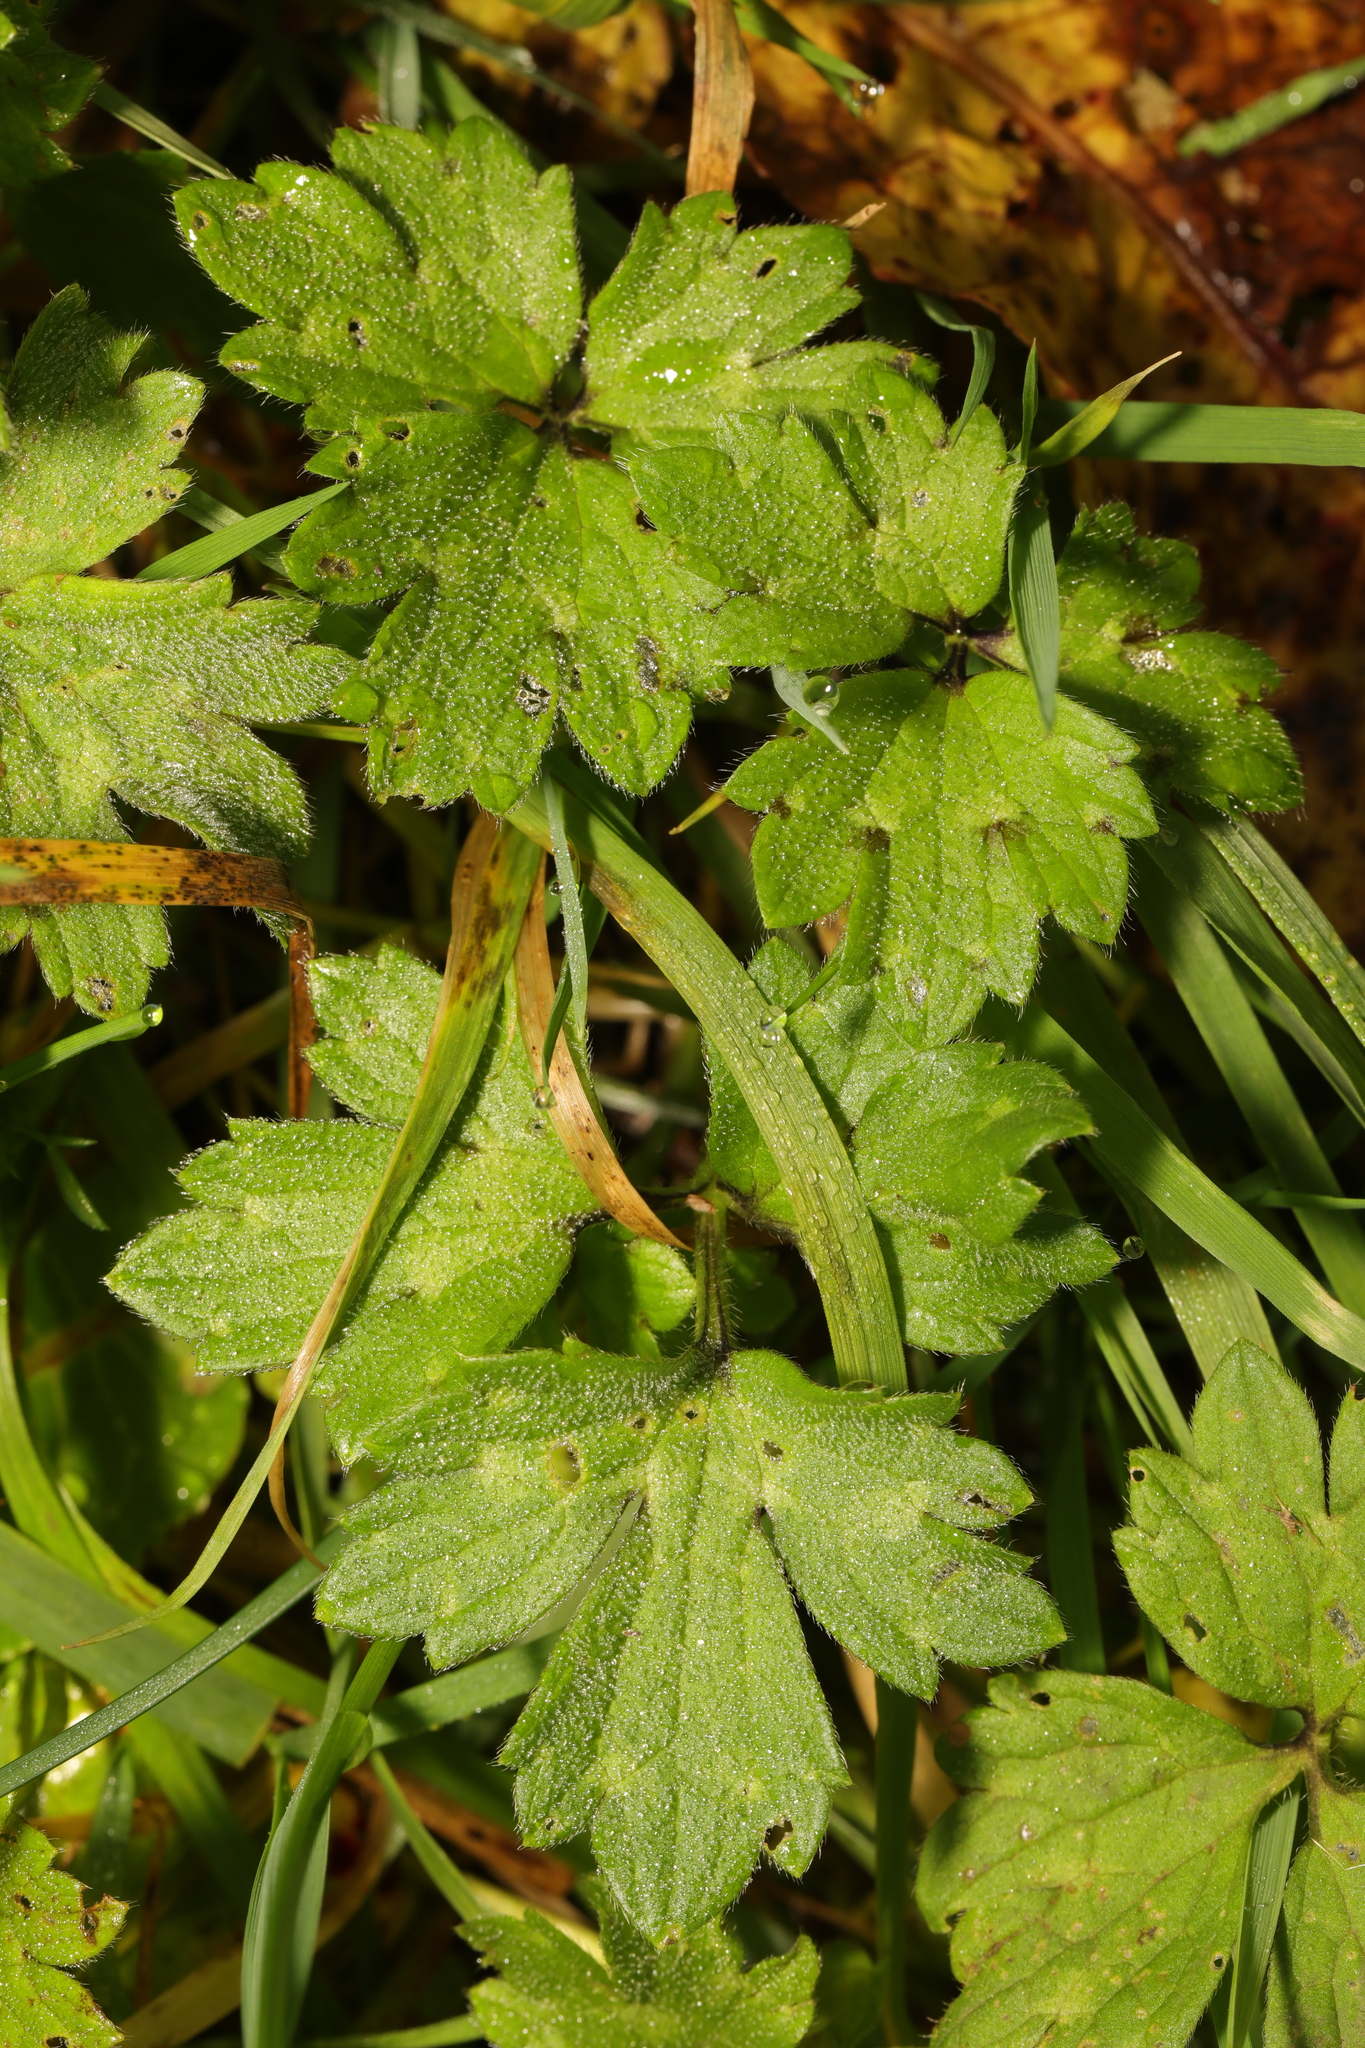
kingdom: Plantae
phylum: Tracheophyta
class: Magnoliopsida
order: Ranunculales
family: Ranunculaceae
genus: Ranunculus
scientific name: Ranunculus repens
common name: Creeping buttercup
